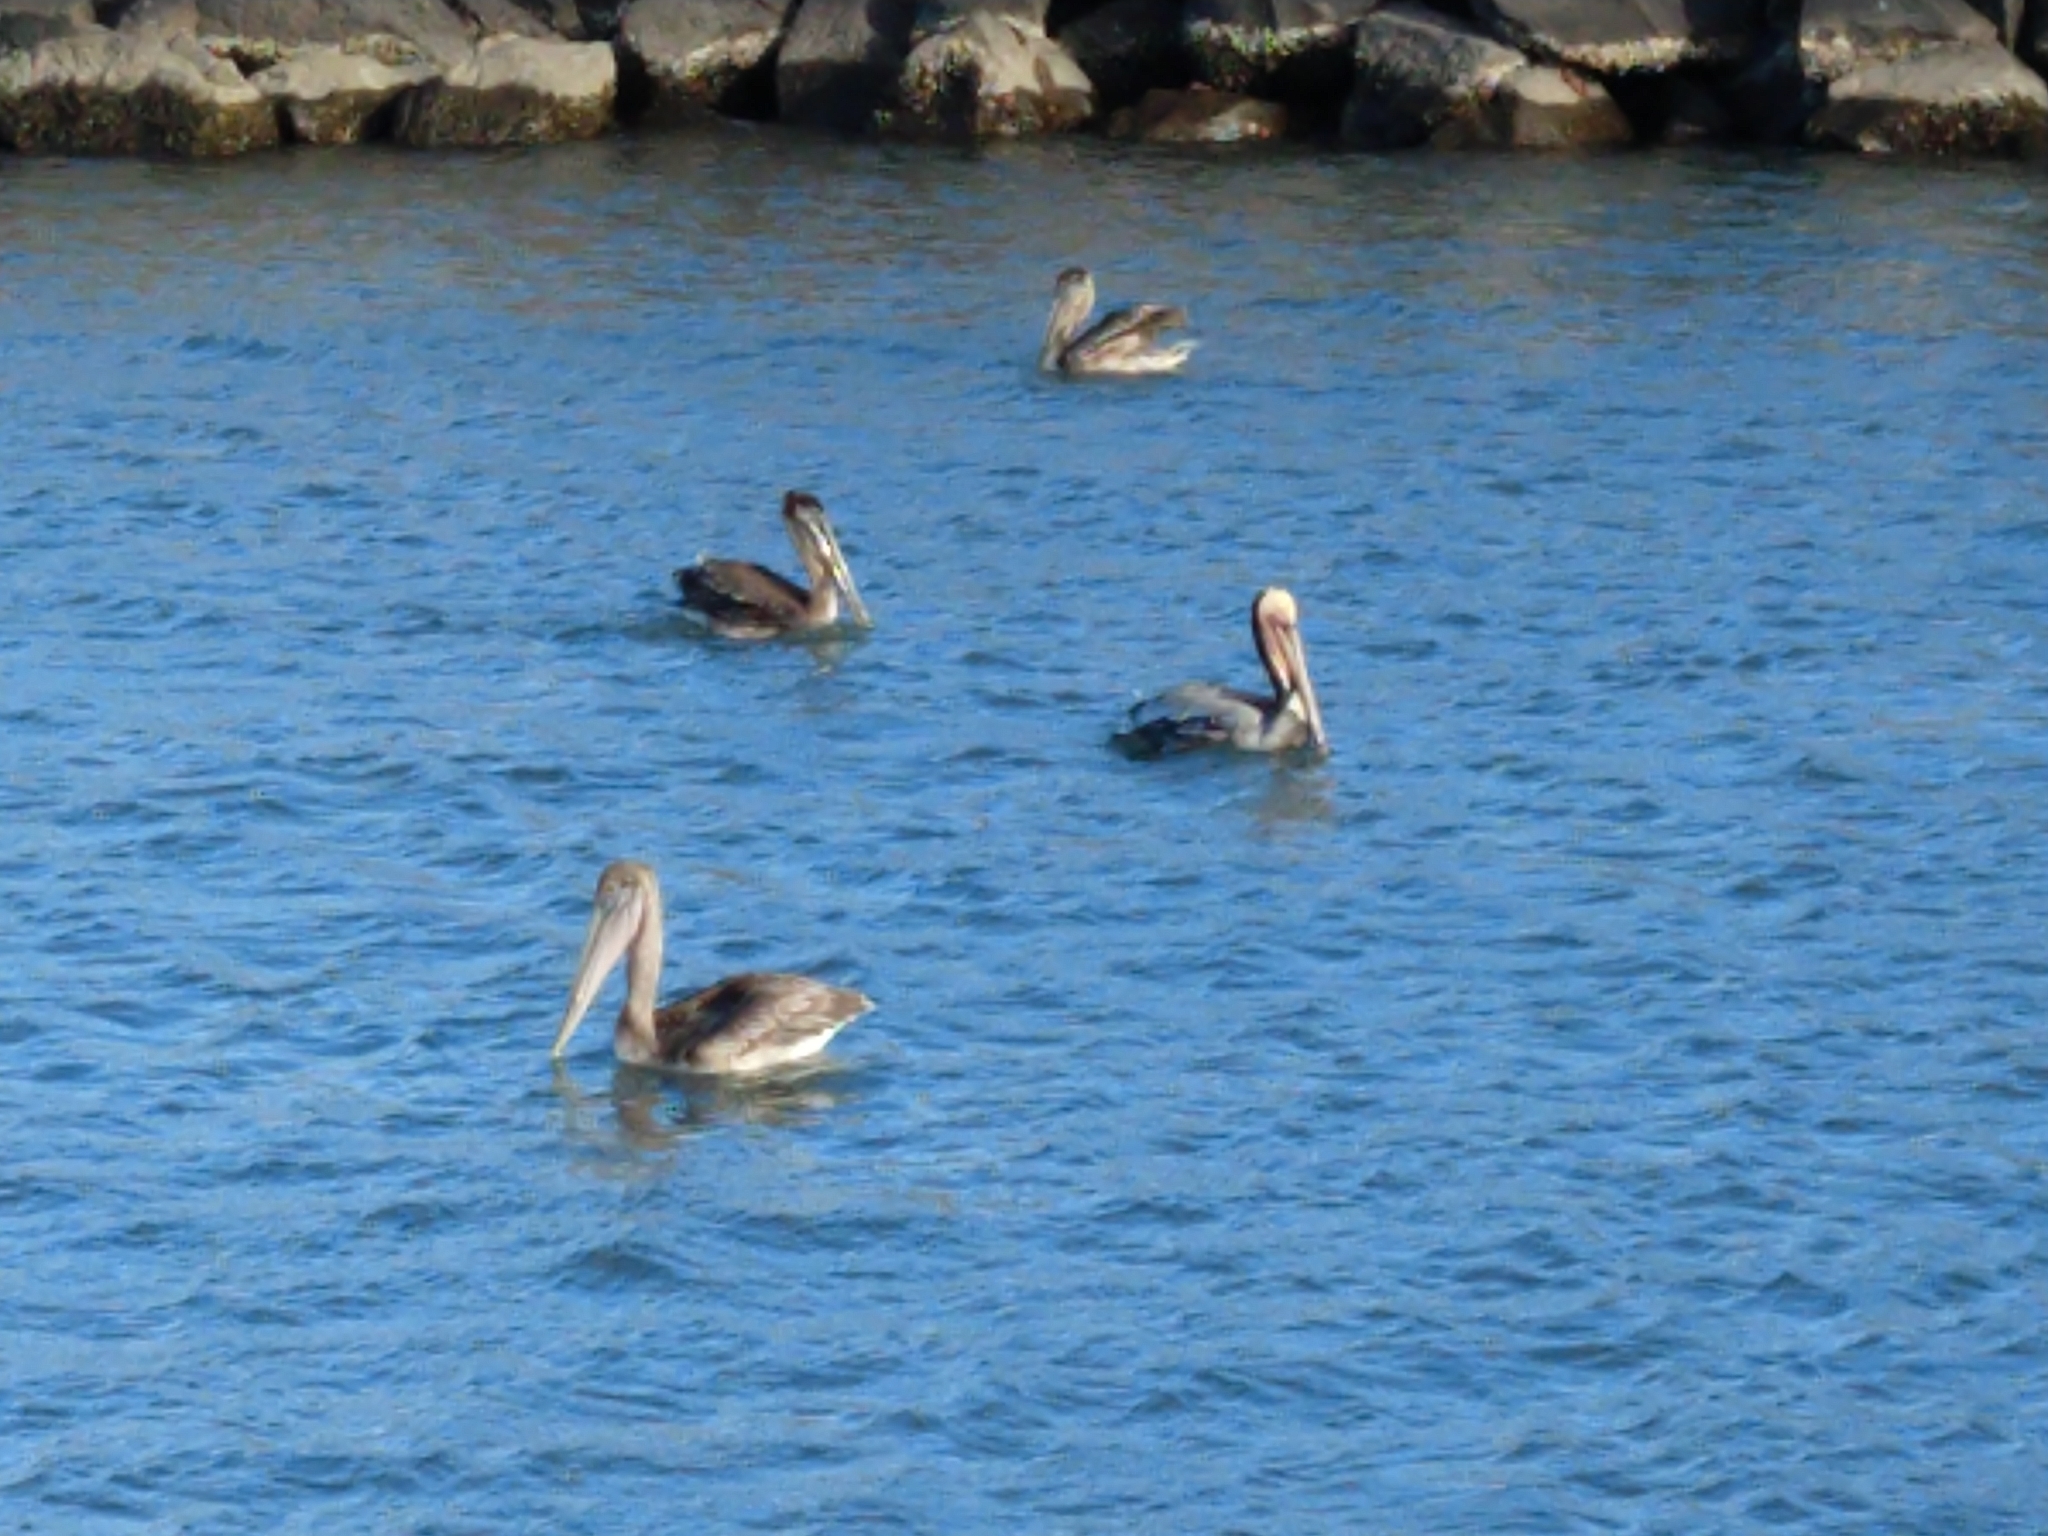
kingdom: Animalia
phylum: Chordata
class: Aves
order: Pelecaniformes
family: Pelecanidae
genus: Pelecanus
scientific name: Pelecanus occidentalis
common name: Brown pelican
